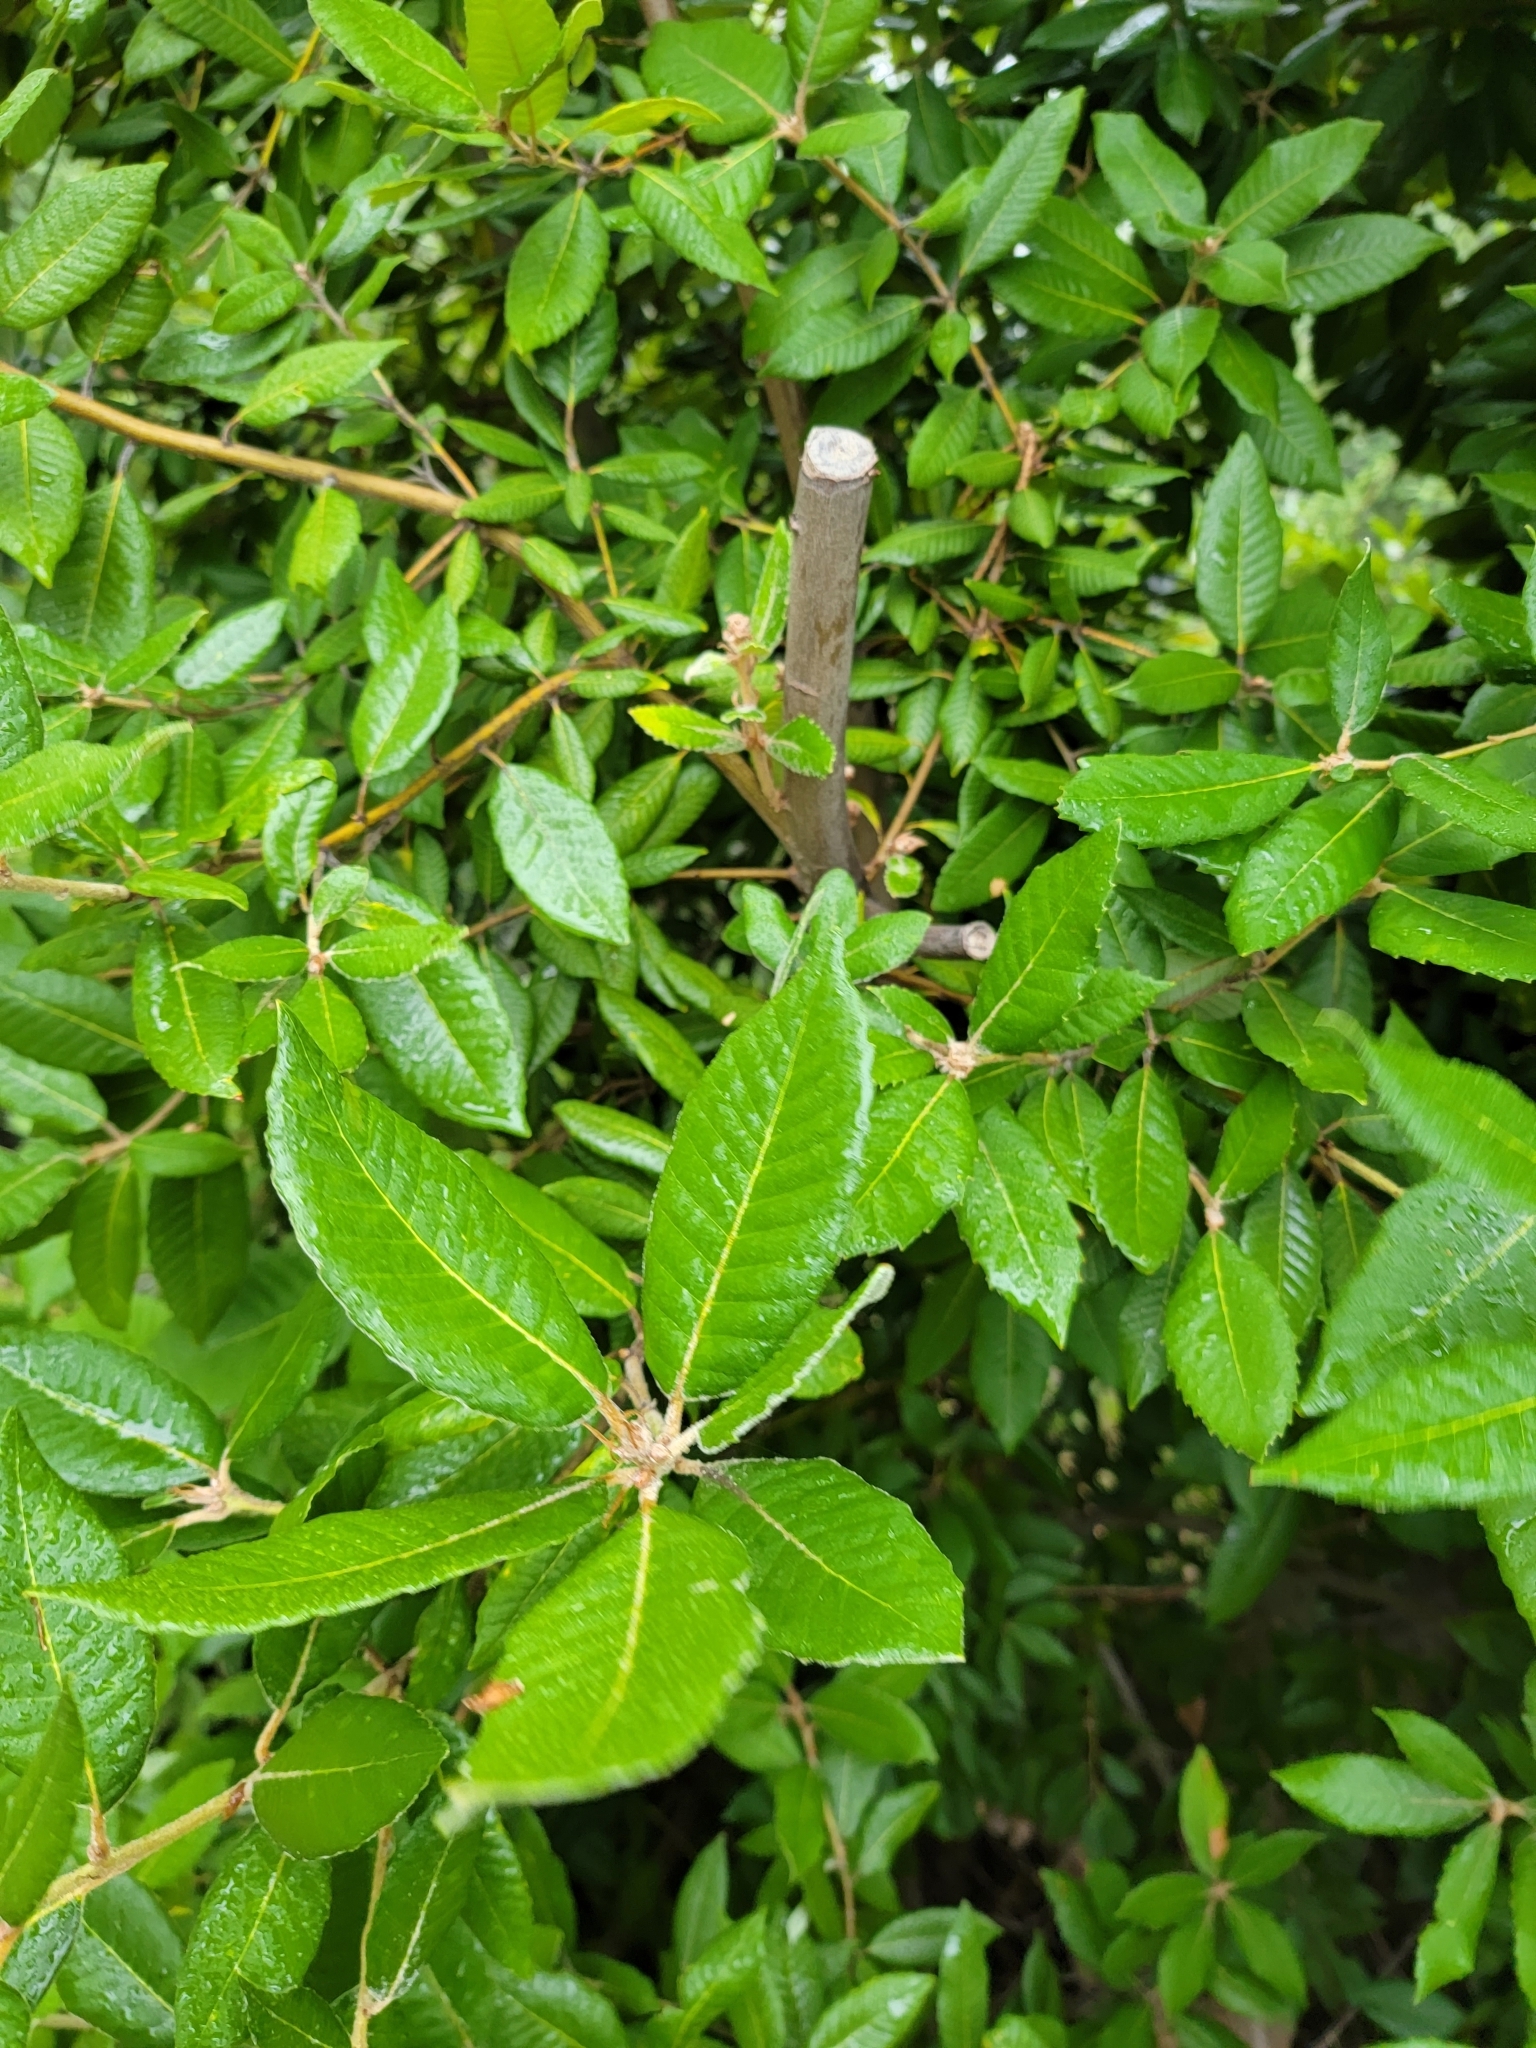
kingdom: Plantae
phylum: Tracheophyta
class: Magnoliopsida
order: Fagales
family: Fagaceae
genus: Notholithocarpus
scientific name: Notholithocarpus densiflorus
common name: Tan bark oak
